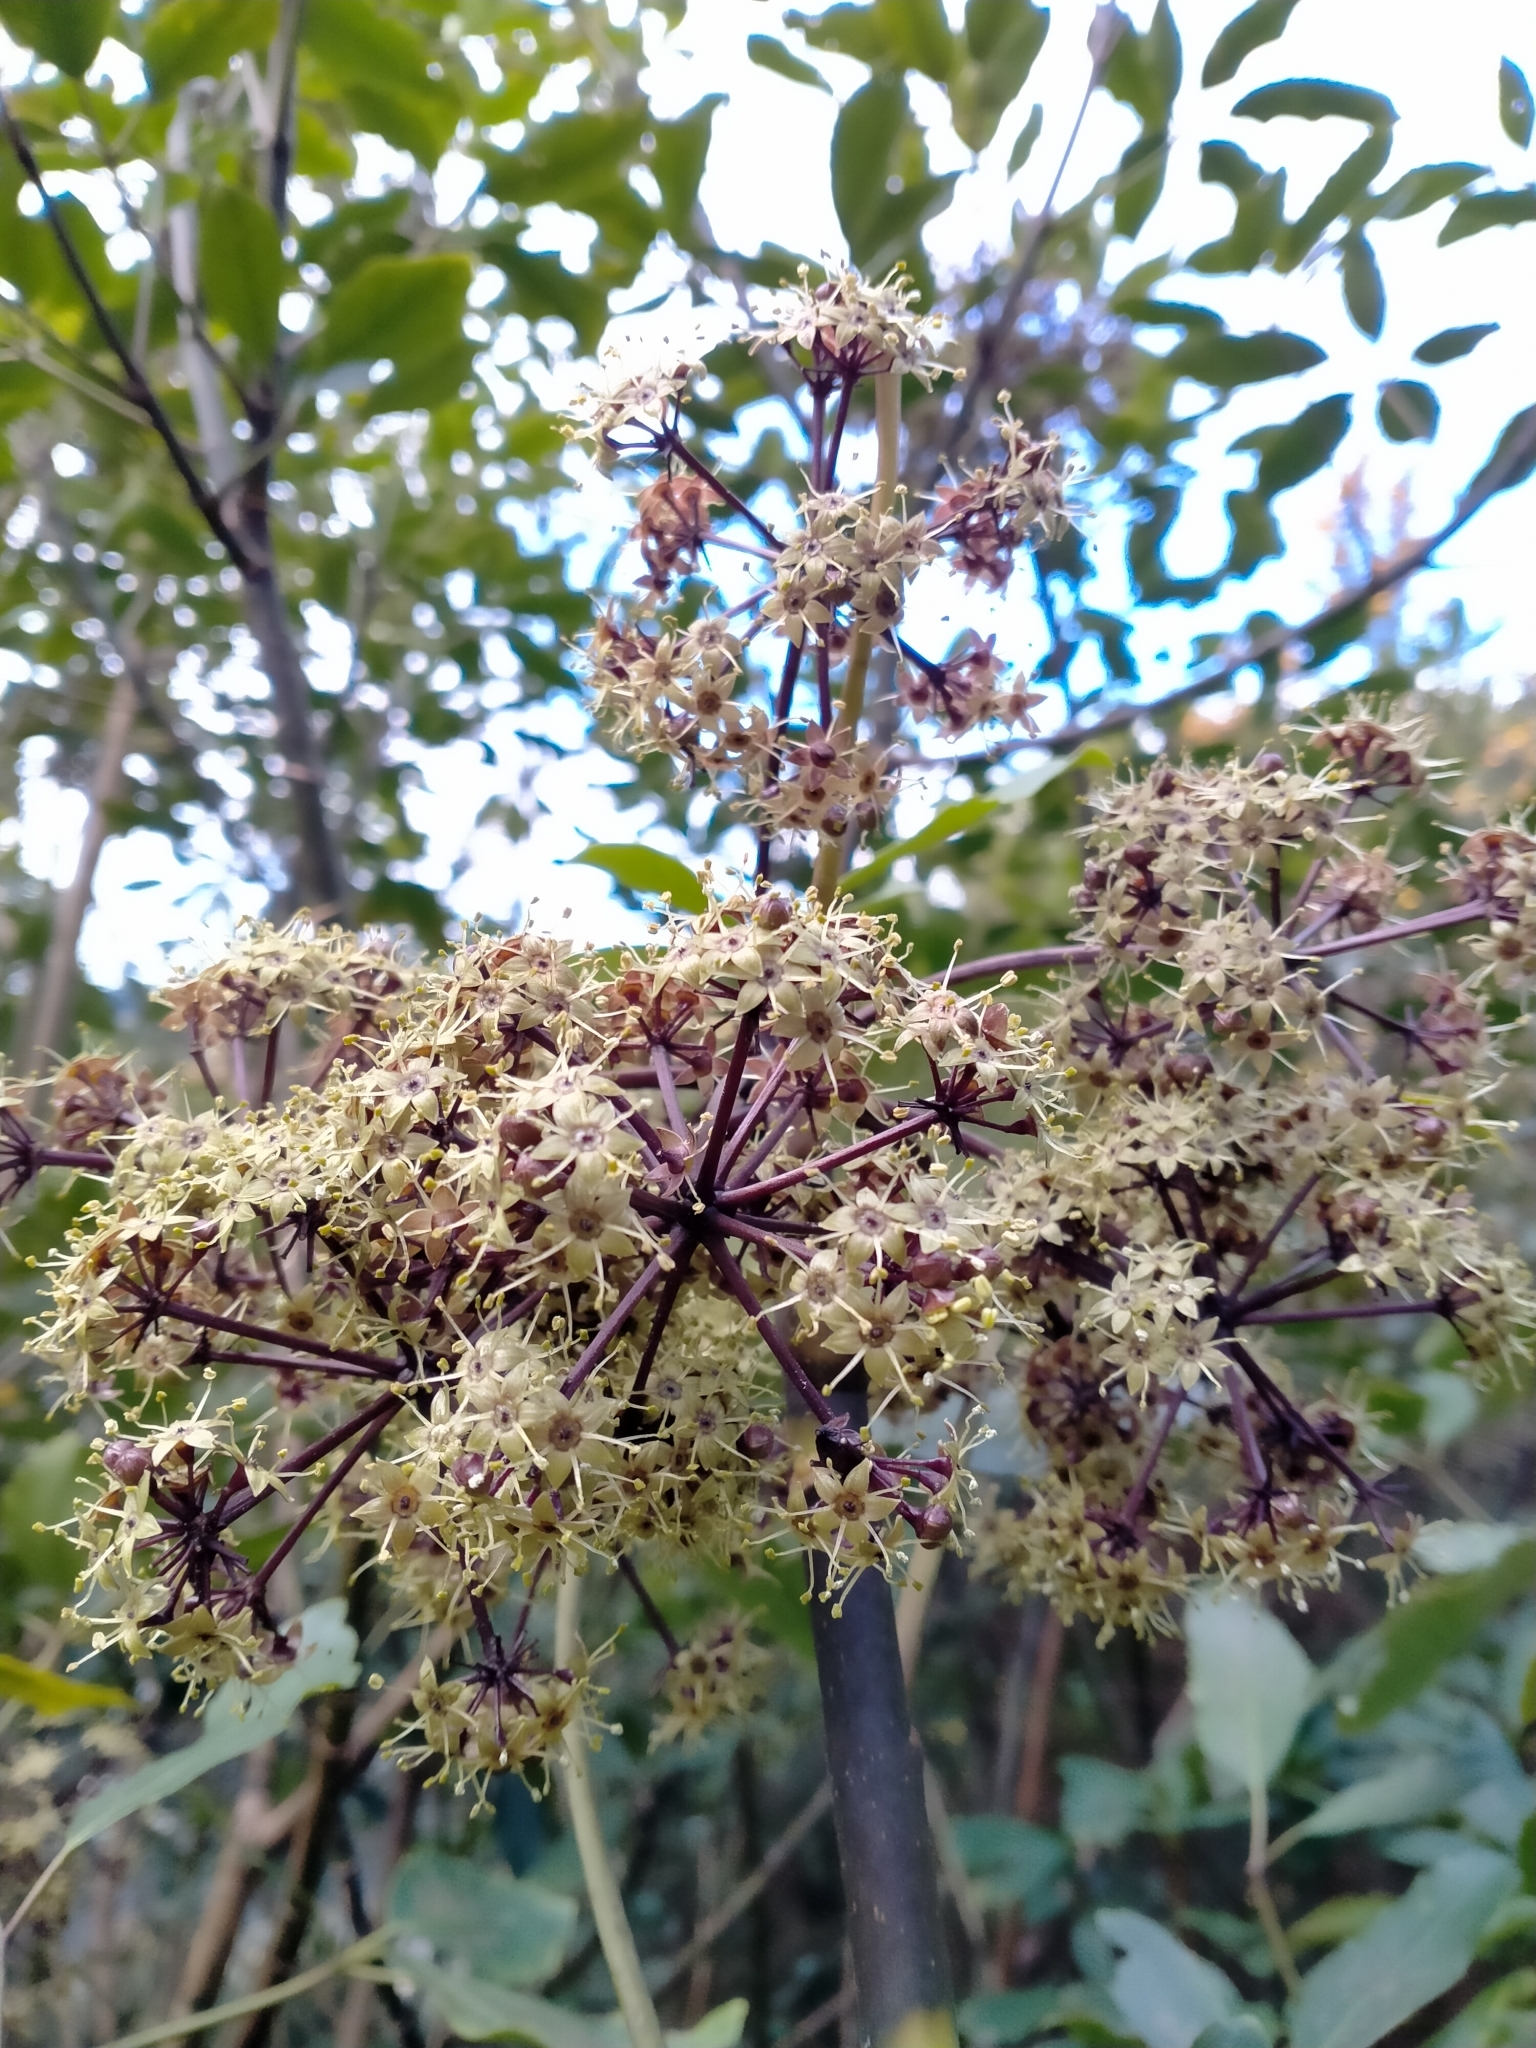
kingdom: Plantae
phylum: Tracheophyta
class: Magnoliopsida
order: Apiales
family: Araliaceae
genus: Neopanax
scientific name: Neopanax arboreus
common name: Five-fingers
